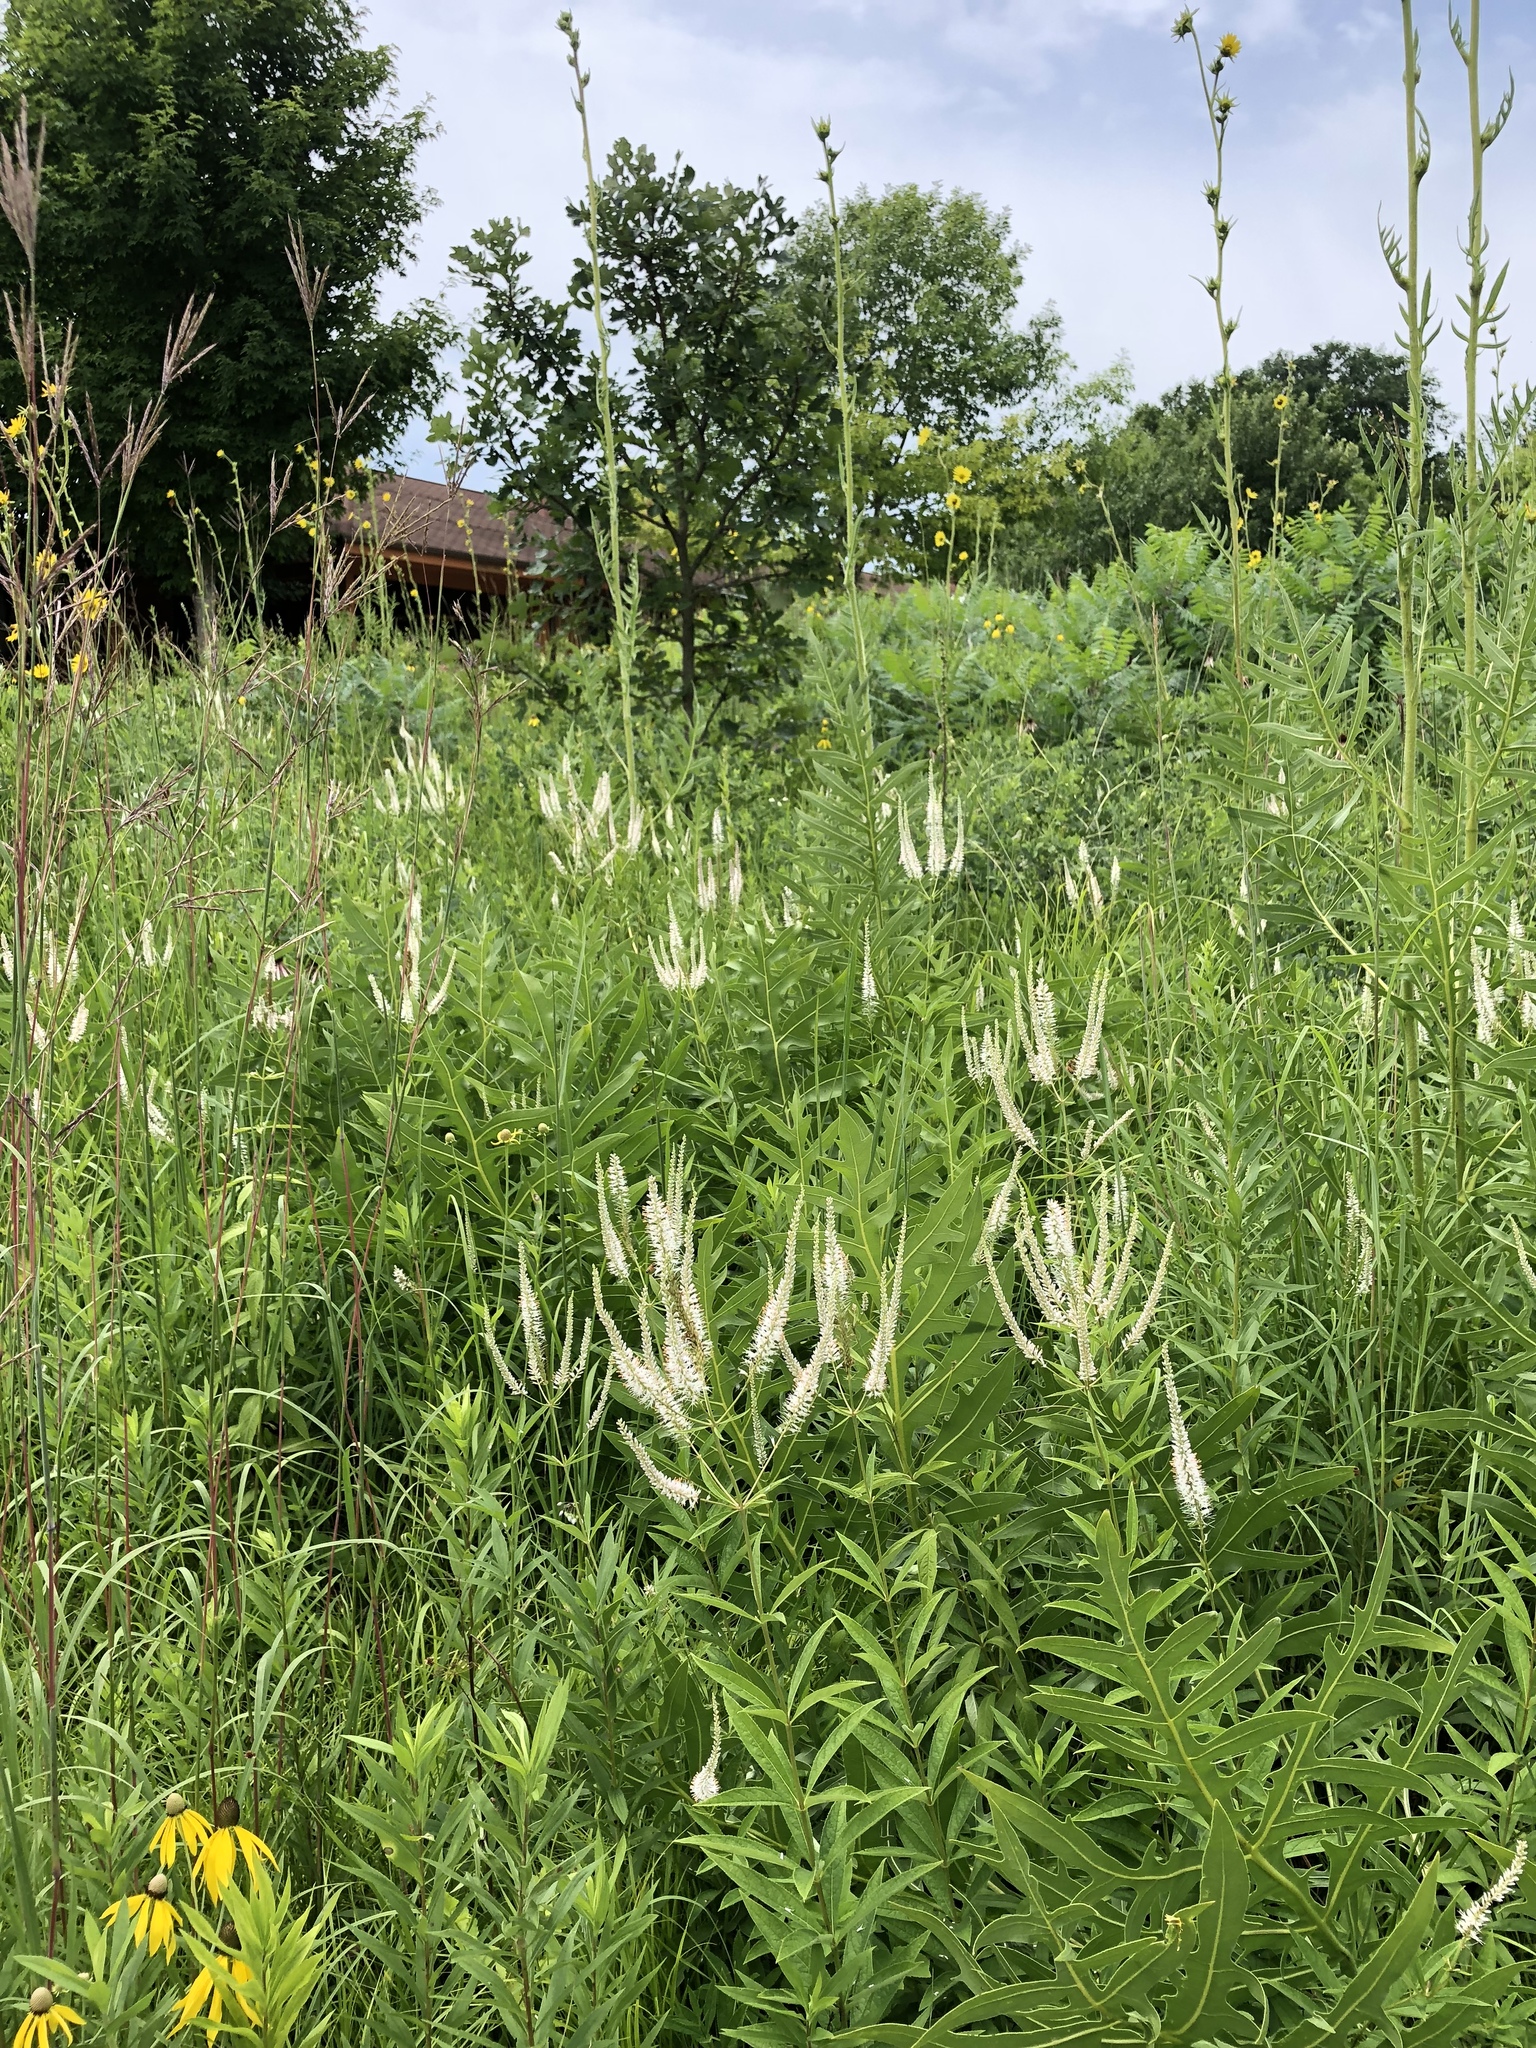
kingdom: Plantae
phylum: Tracheophyta
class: Magnoliopsida
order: Lamiales
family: Plantaginaceae
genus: Veronicastrum
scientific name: Veronicastrum virginicum
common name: Blackroot
